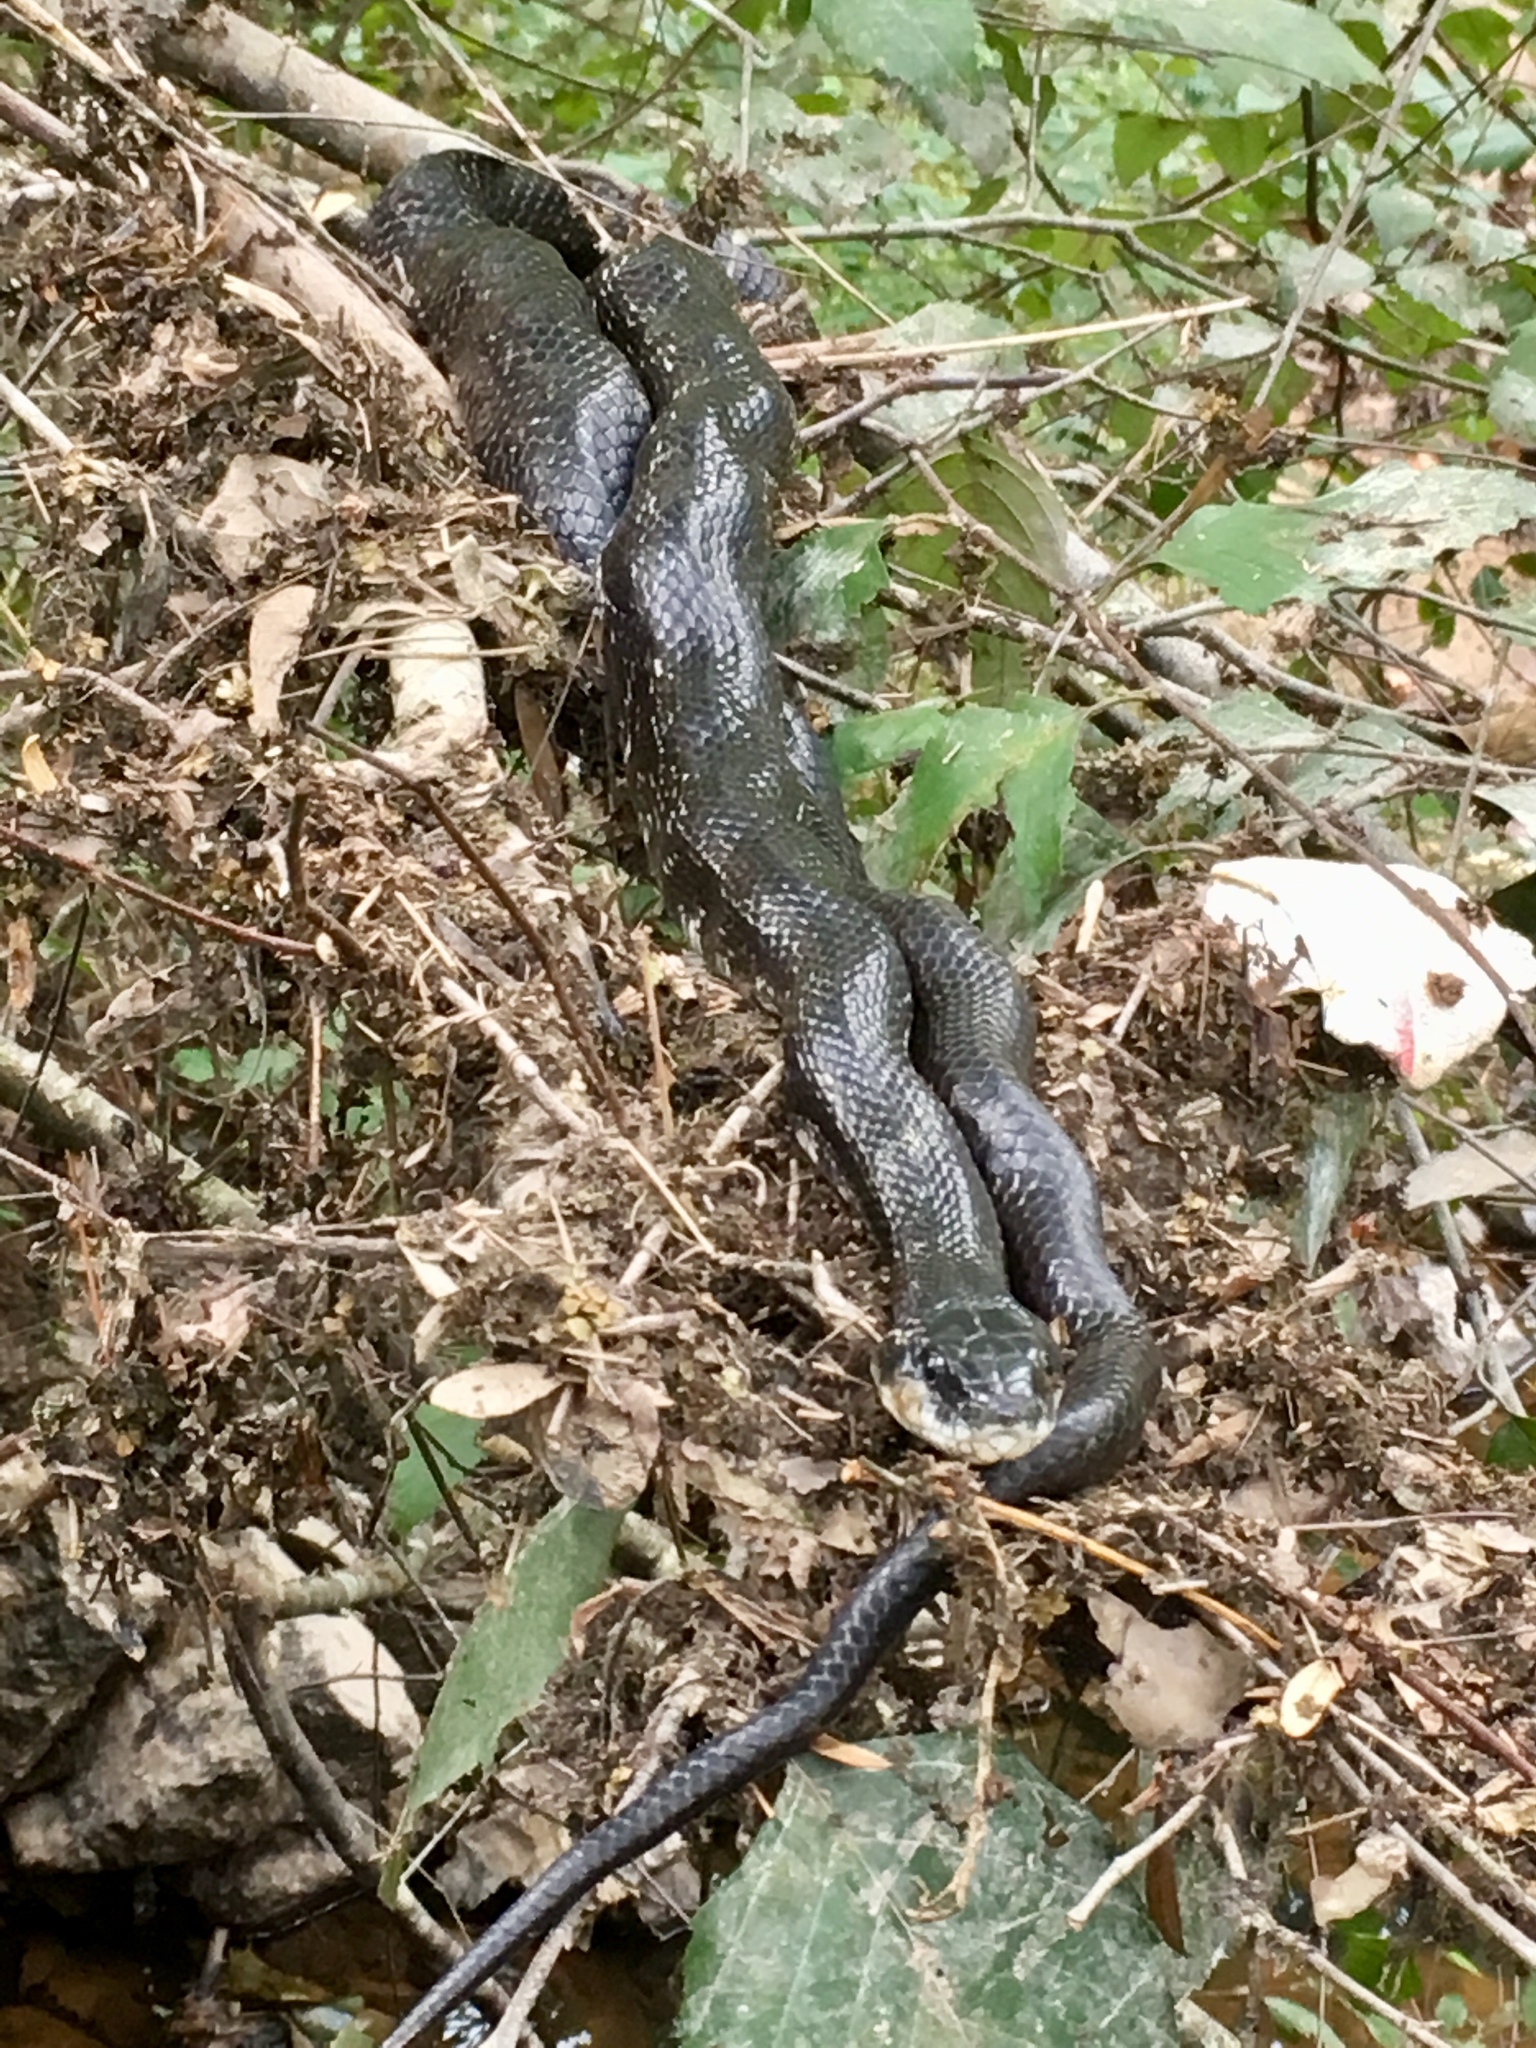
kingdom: Animalia
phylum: Chordata
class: Squamata
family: Colubridae
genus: Pantherophis
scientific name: Pantherophis alleghaniensis
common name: Eastern rat snake
